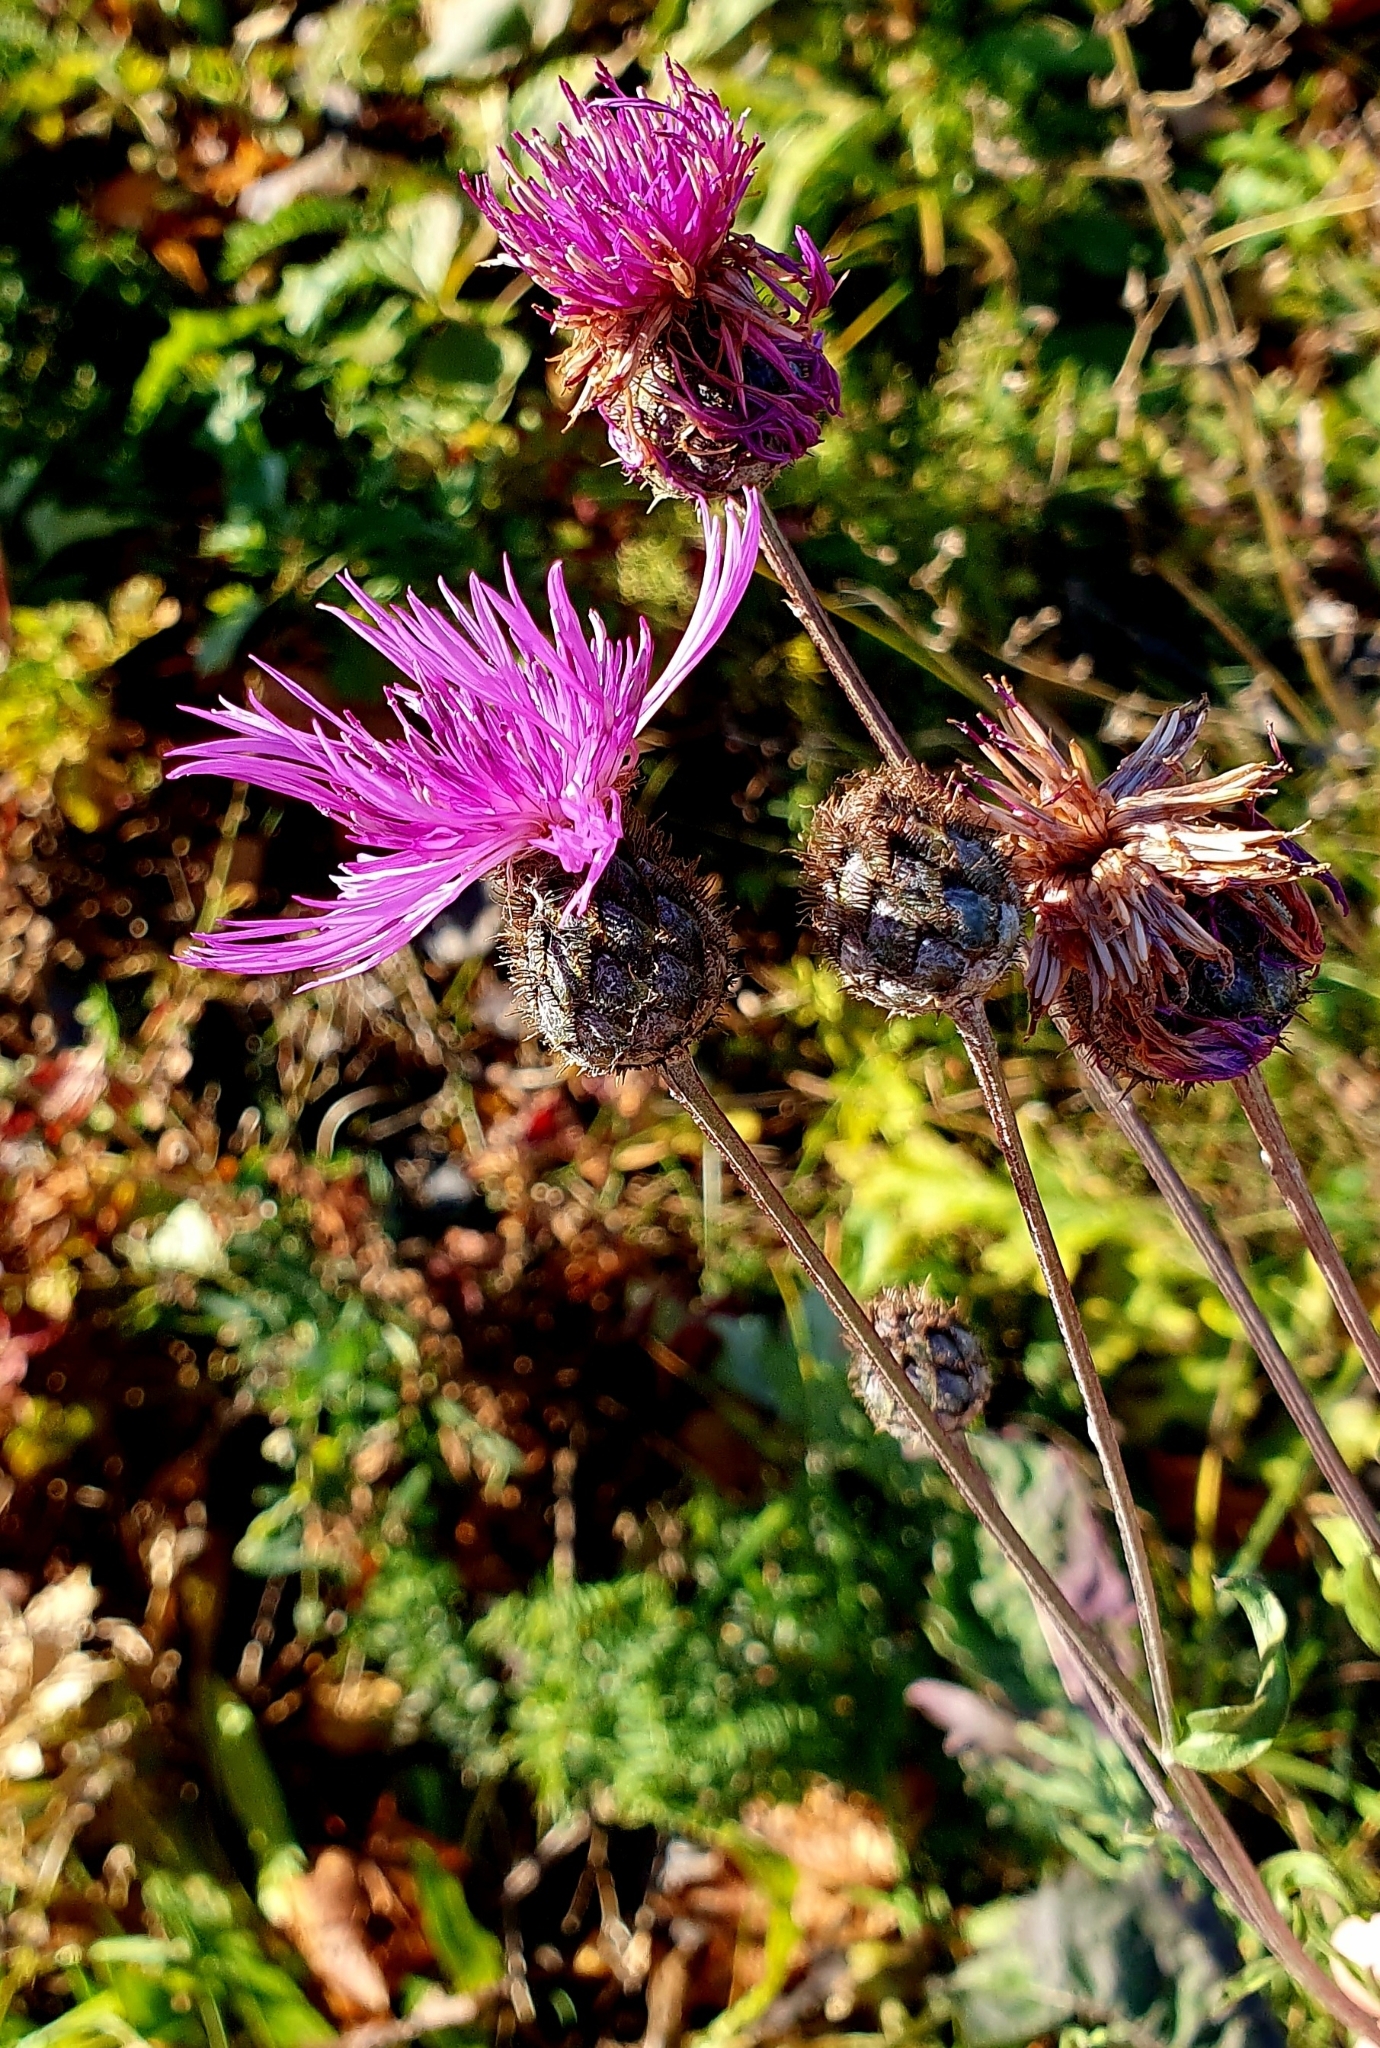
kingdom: Plantae
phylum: Tracheophyta
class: Magnoliopsida
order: Asterales
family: Asteraceae
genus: Centaurea
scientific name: Centaurea scabiosa
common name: Greater knapweed
